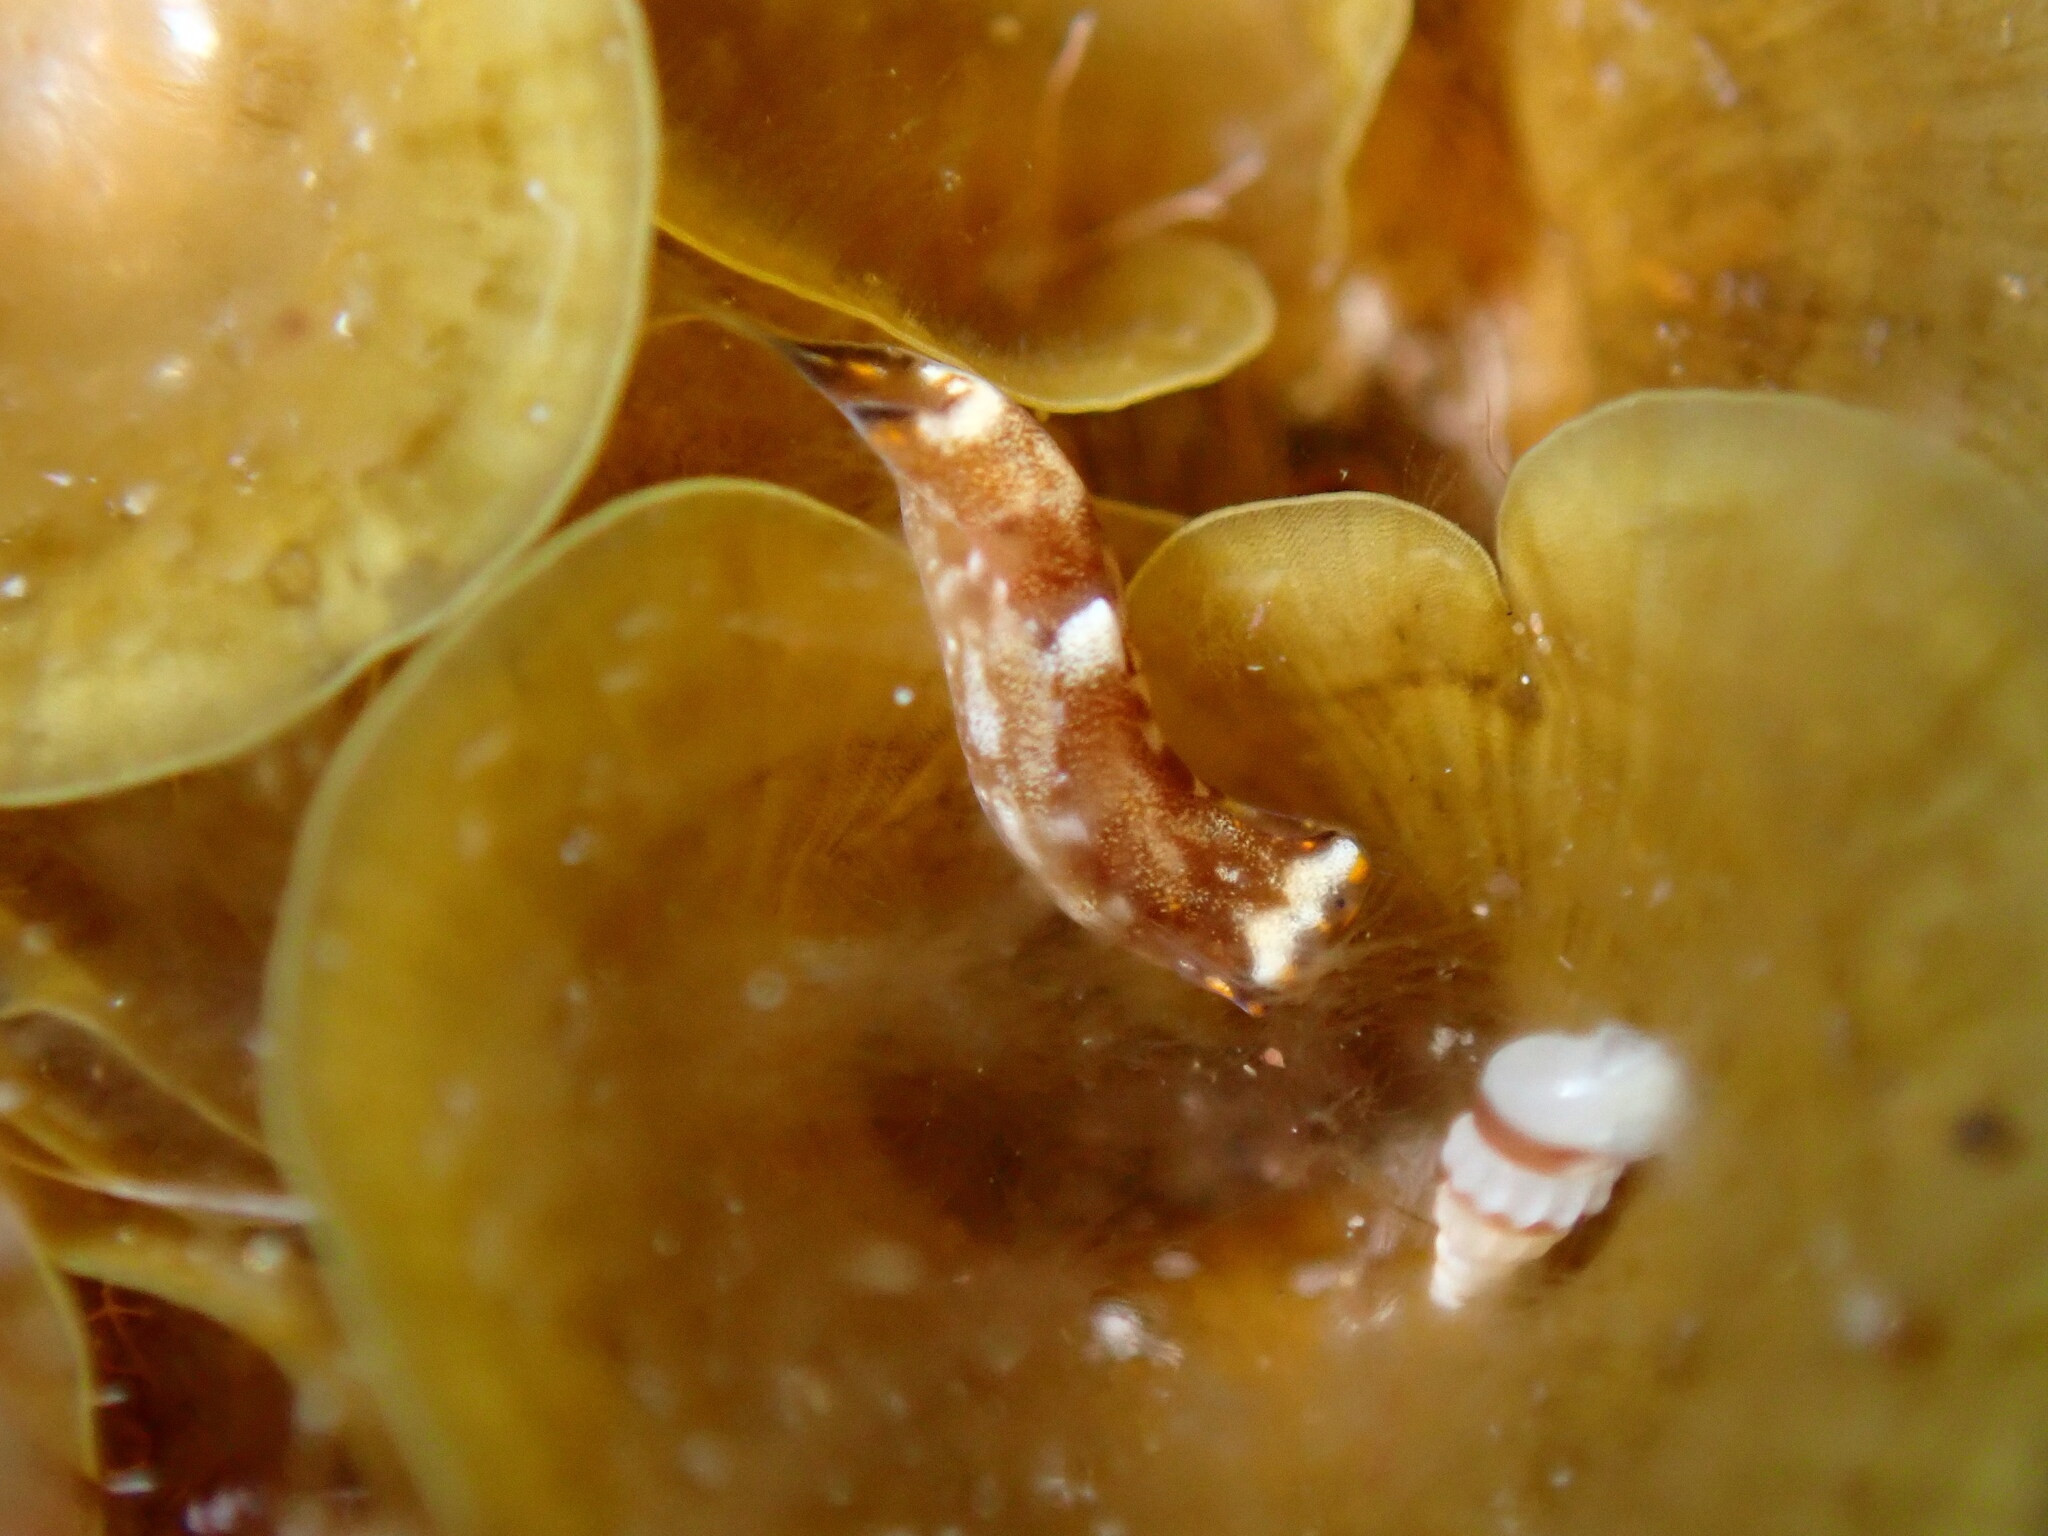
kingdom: Animalia
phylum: Mollusca
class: Gastropoda
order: Cephalaspidea
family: Aglajidae
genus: Biuve
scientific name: Biuve fulvipunctata
